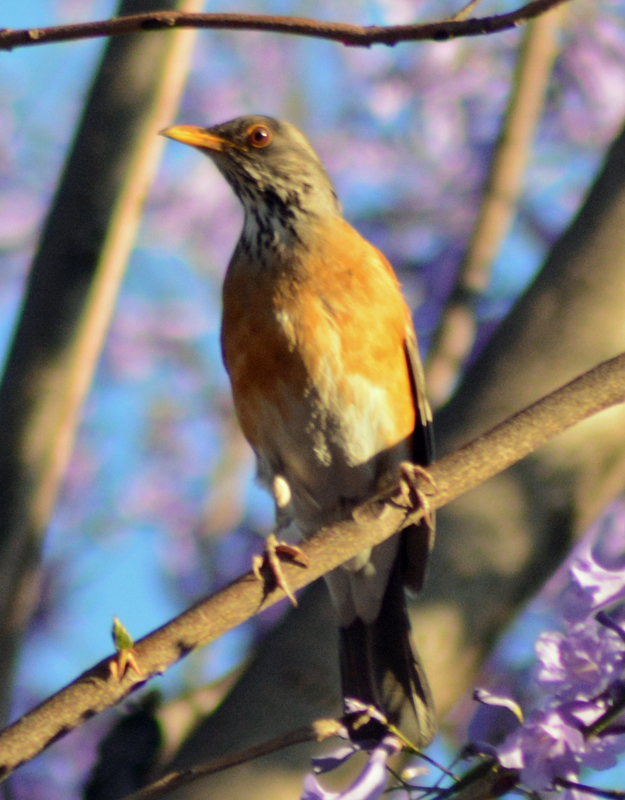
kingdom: Animalia
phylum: Chordata
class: Aves
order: Passeriformes
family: Turdidae
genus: Turdus
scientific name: Turdus rufopalliatus
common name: Rufous-backed robin
